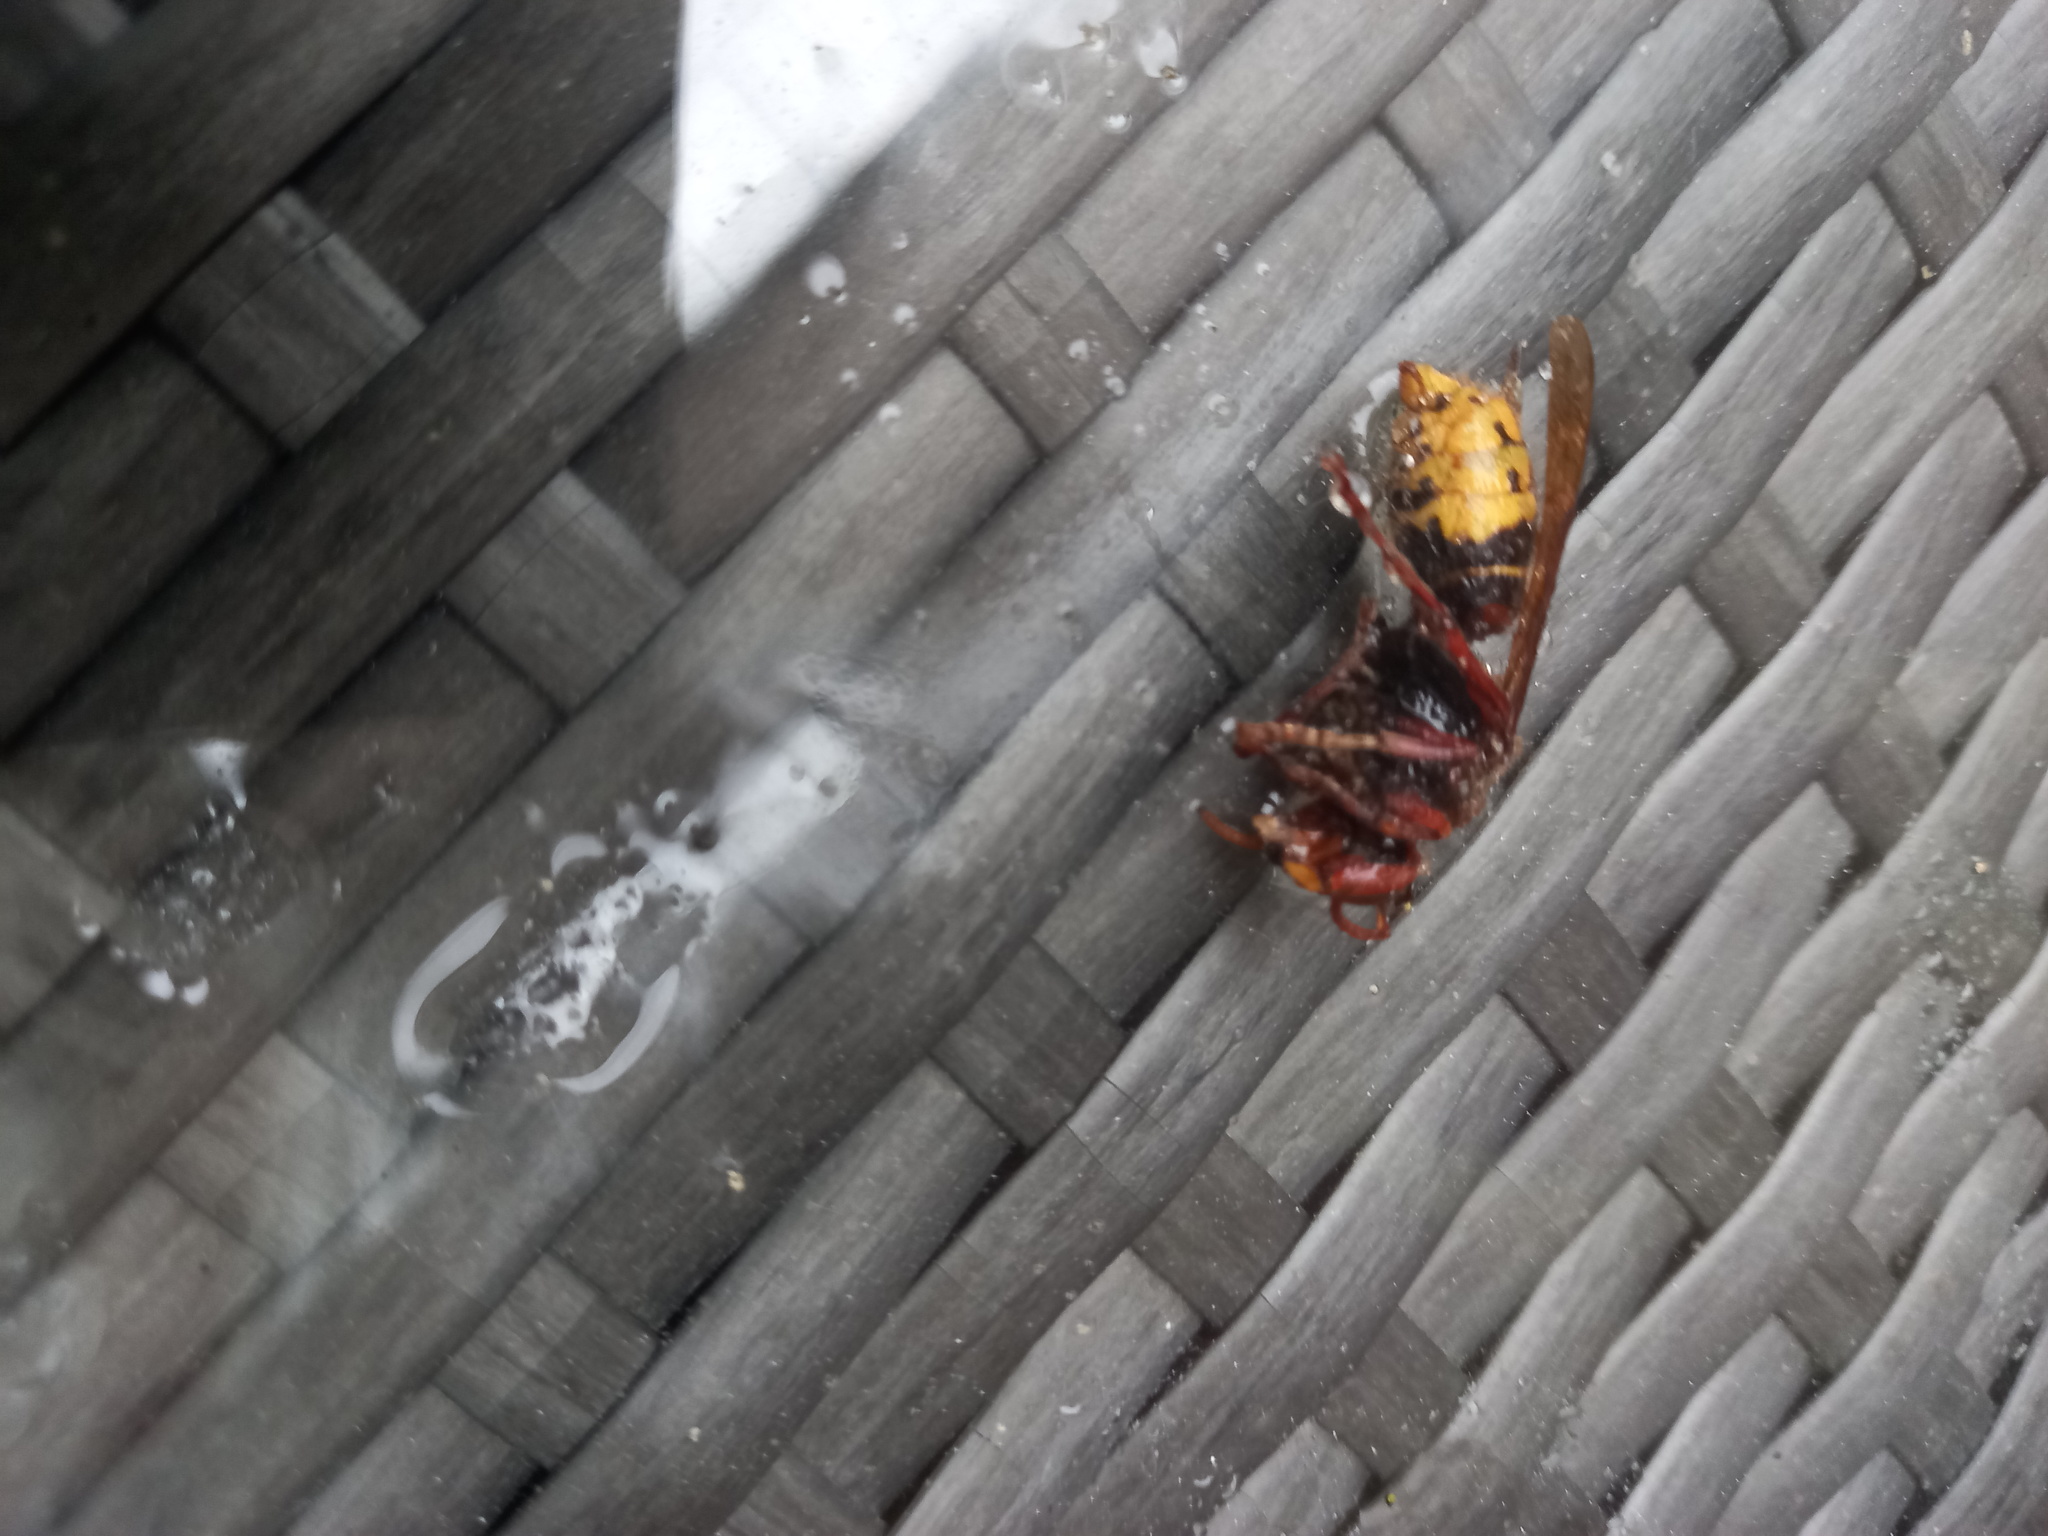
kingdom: Animalia
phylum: Arthropoda
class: Insecta
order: Hymenoptera
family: Vespidae
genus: Vespa
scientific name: Vespa crabro
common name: Hornet
